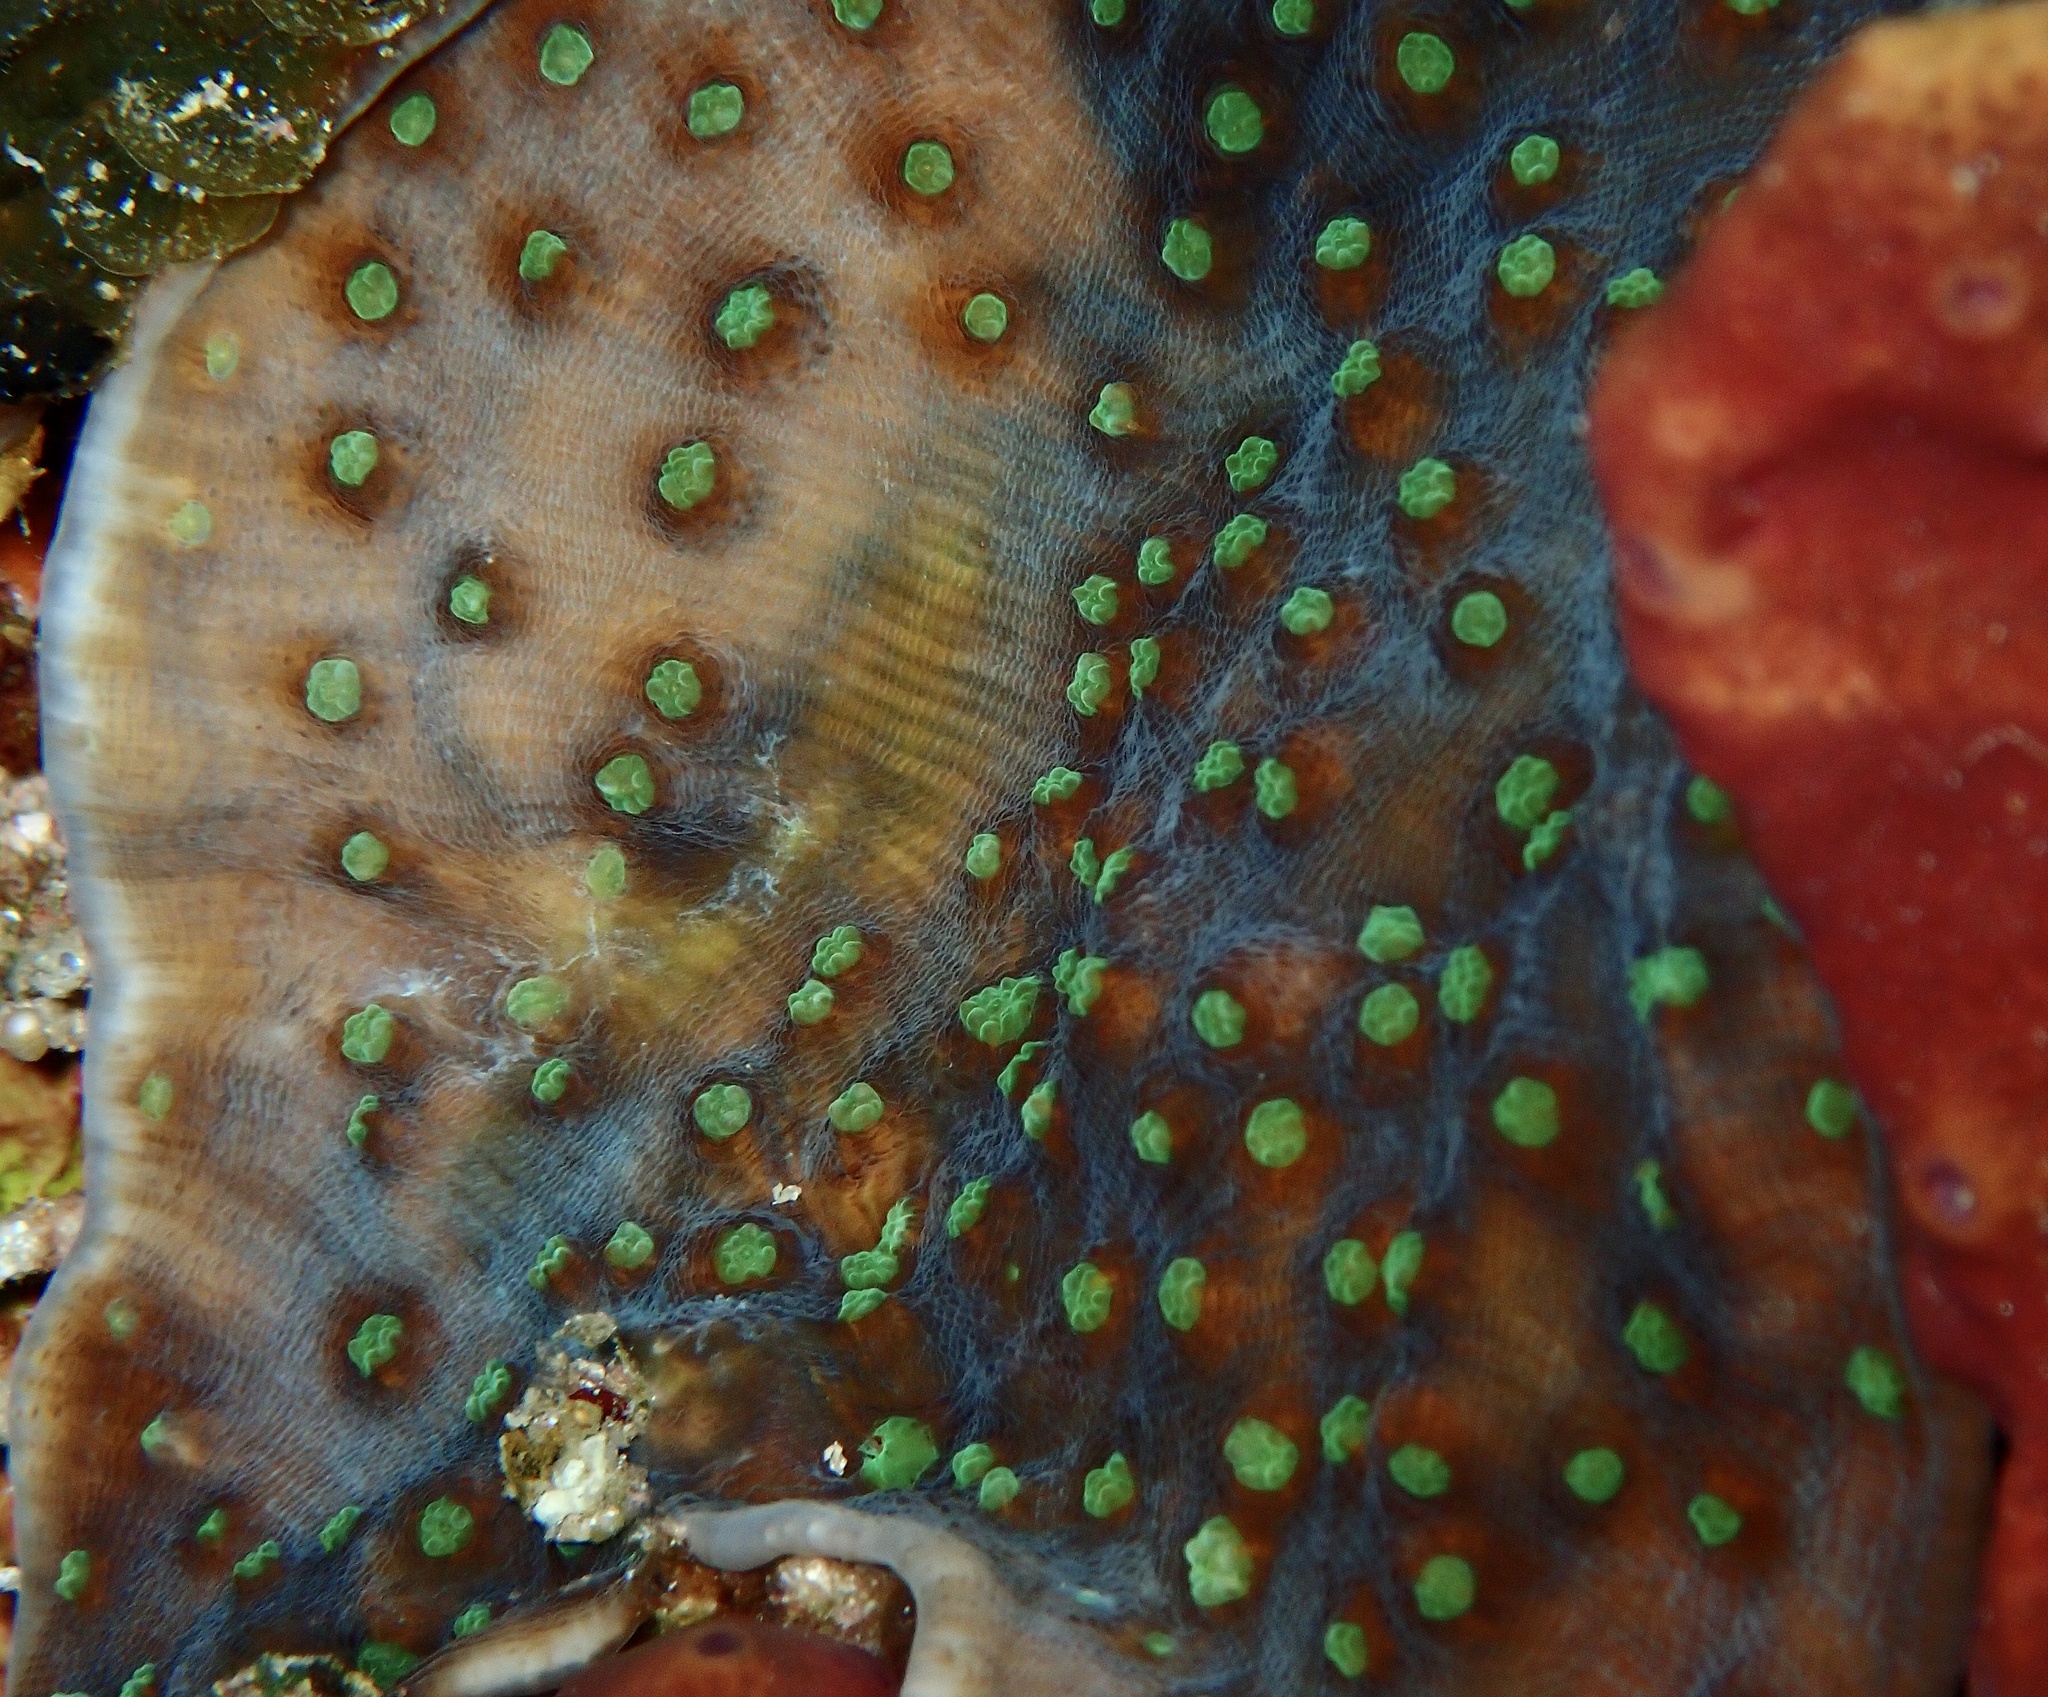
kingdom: Animalia
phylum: Cnidaria
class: Anthozoa
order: Scleractinia
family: Merulinidae
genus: Mycedium
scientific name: Mycedium robokaki
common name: Chinese lettuce coral
